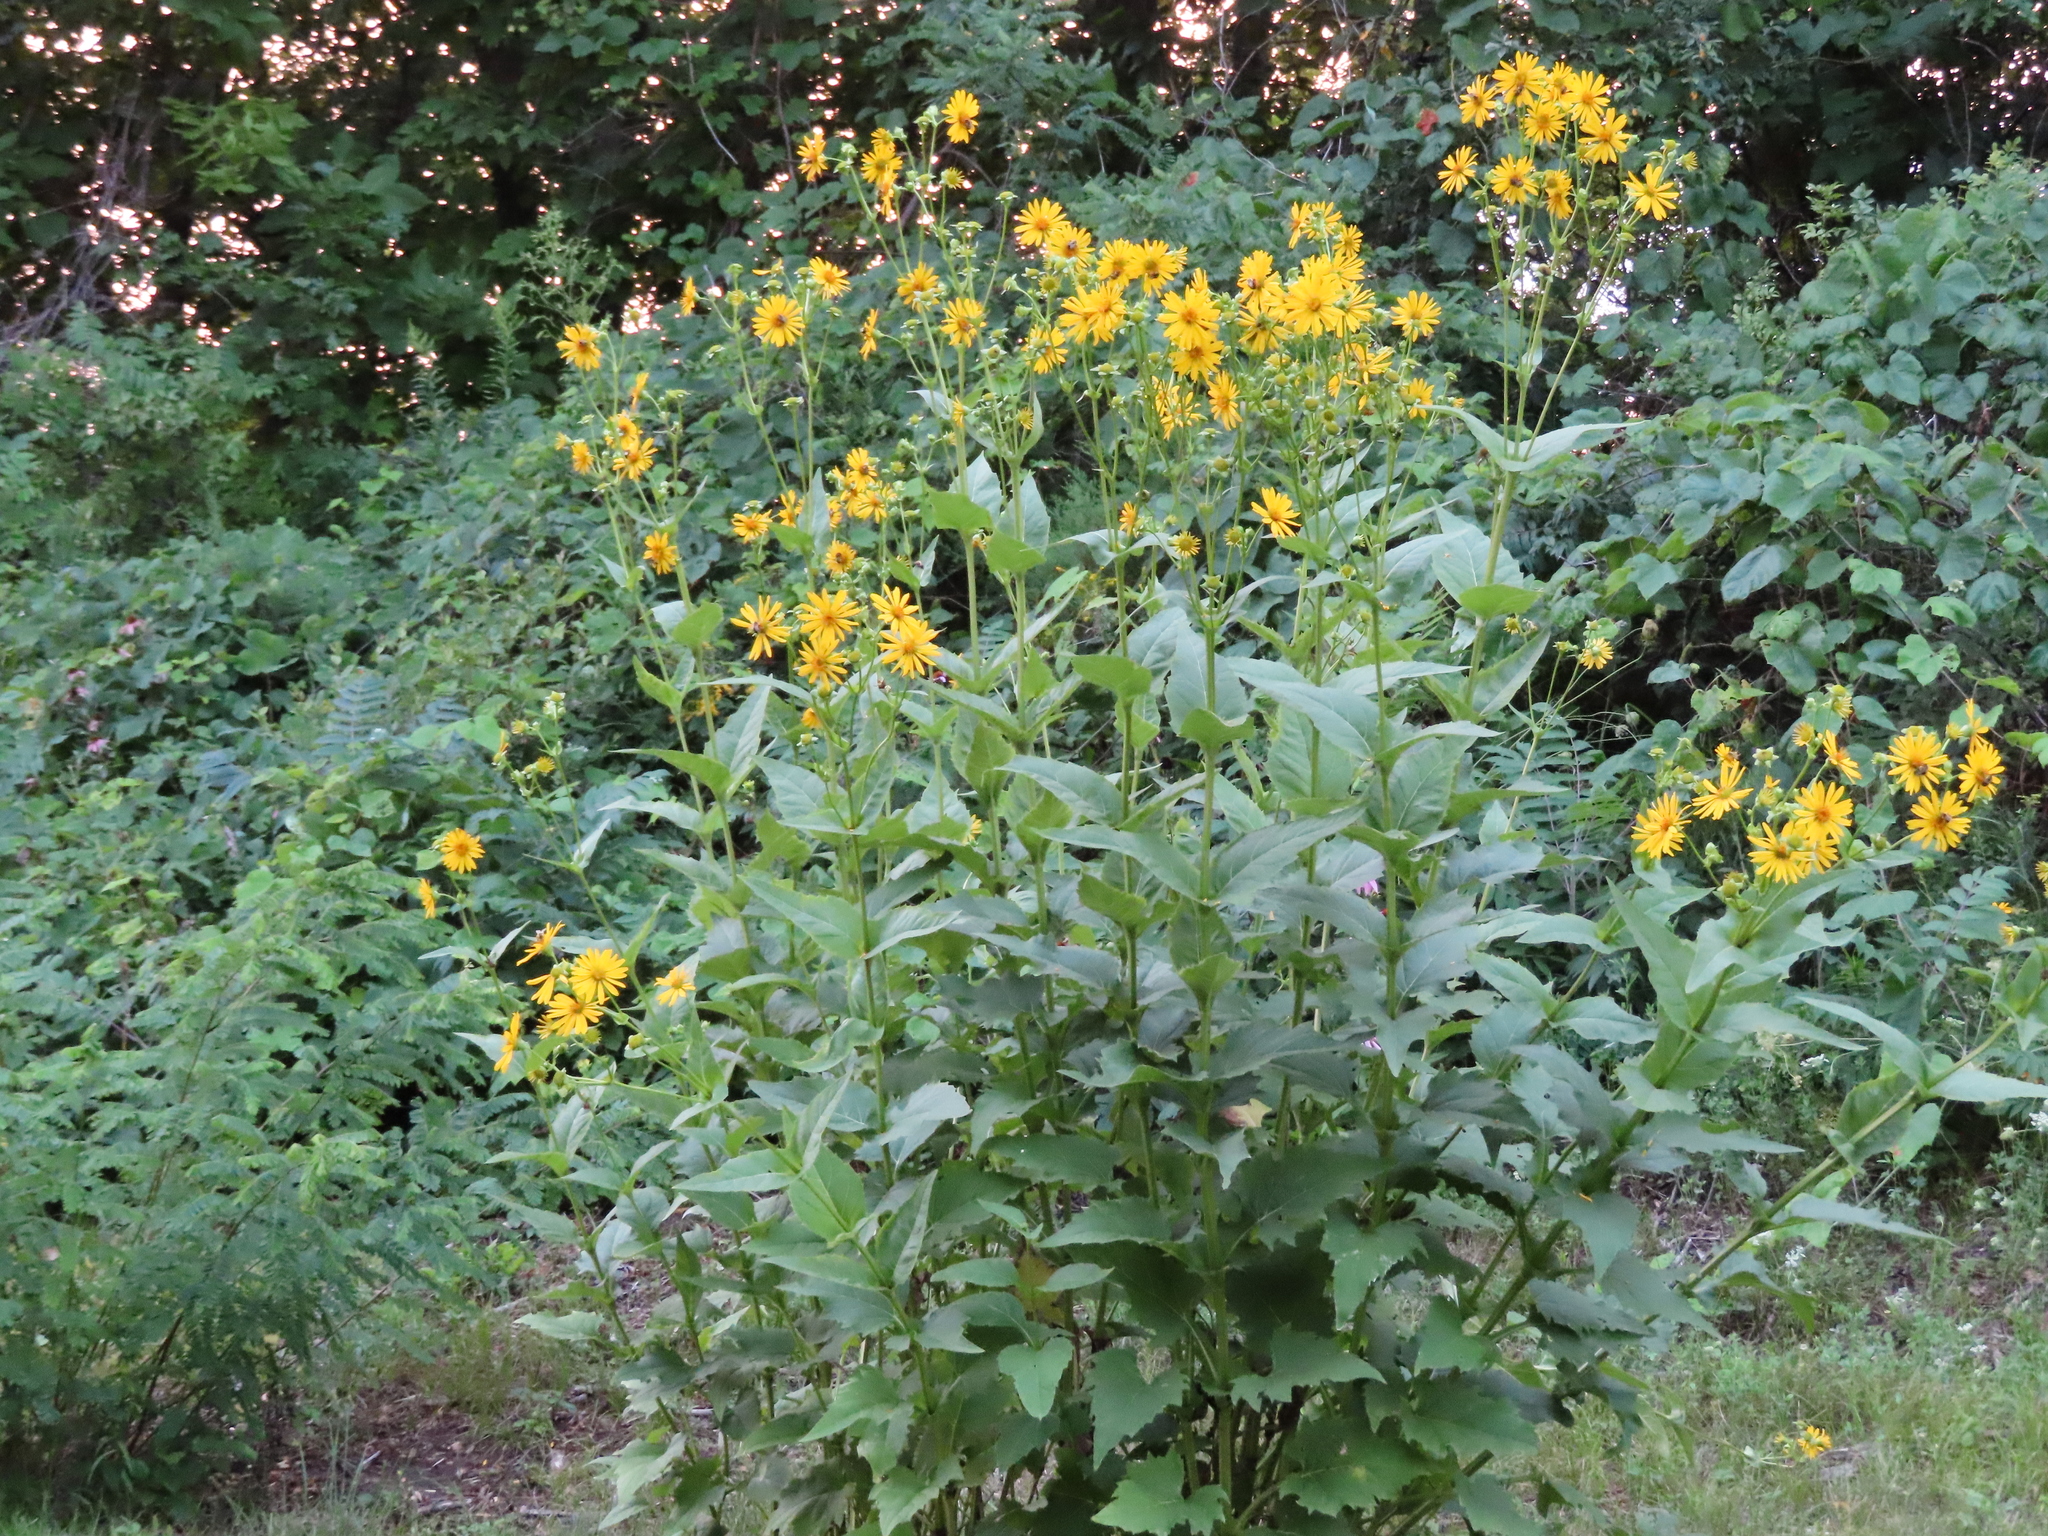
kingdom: Plantae
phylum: Tracheophyta
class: Magnoliopsida
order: Asterales
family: Asteraceae
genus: Silphium
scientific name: Silphium perfoliatum
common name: Cup-plant
